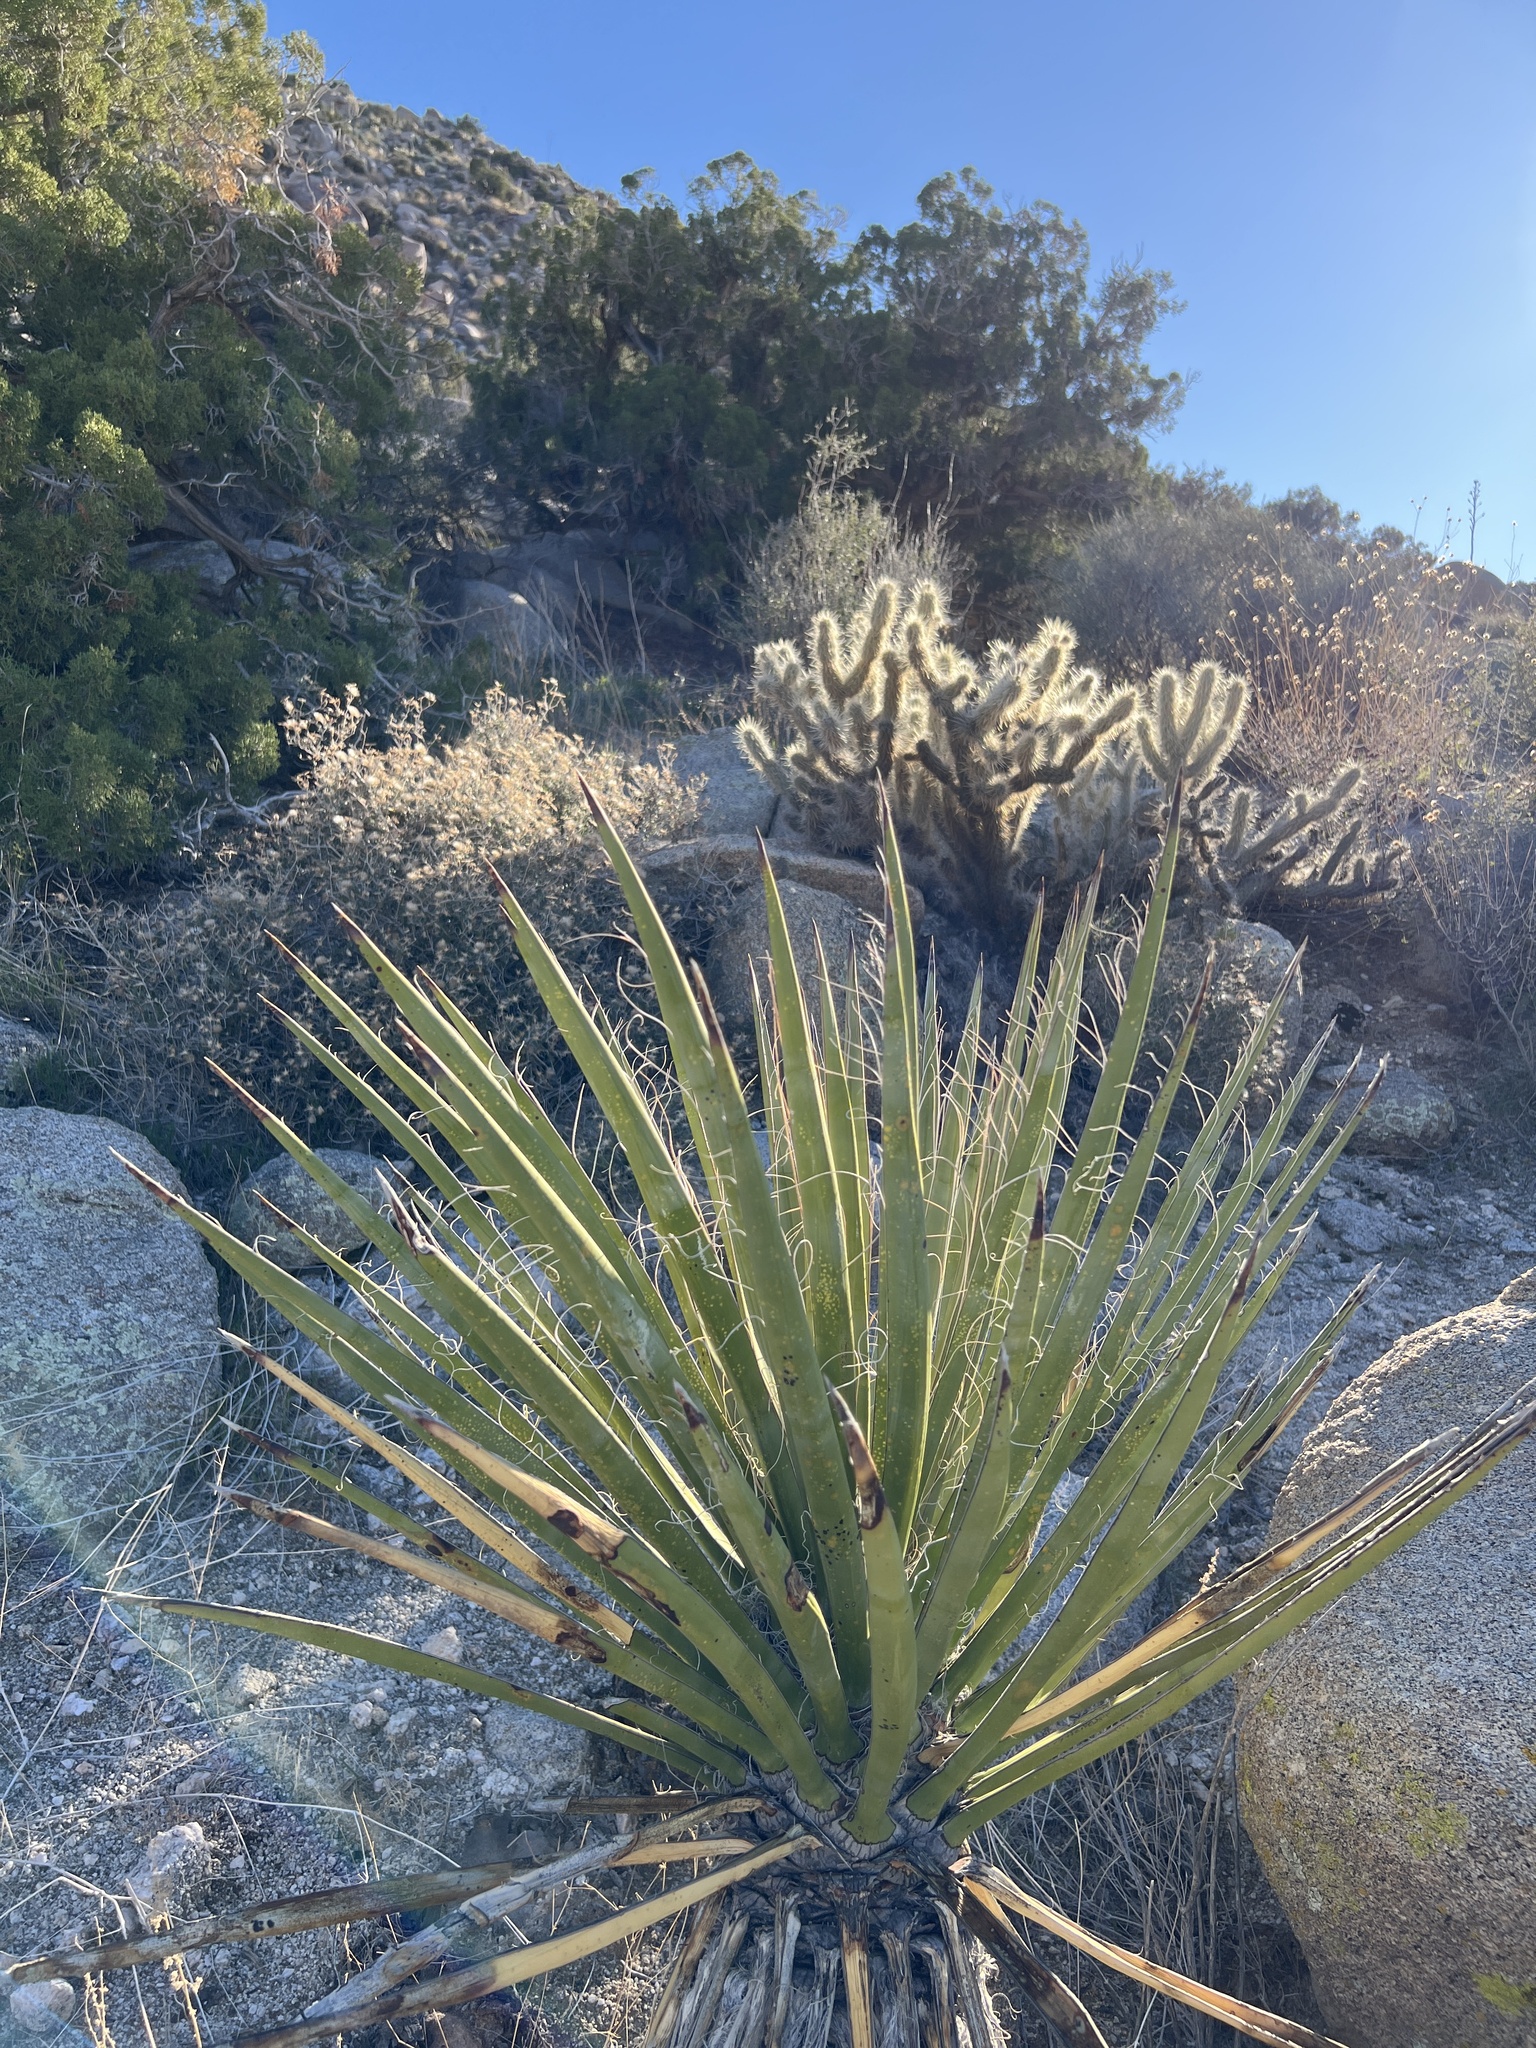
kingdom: Plantae
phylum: Tracheophyta
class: Liliopsida
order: Asparagales
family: Asparagaceae
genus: Yucca
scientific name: Yucca schidigera
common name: Mojave yucca
